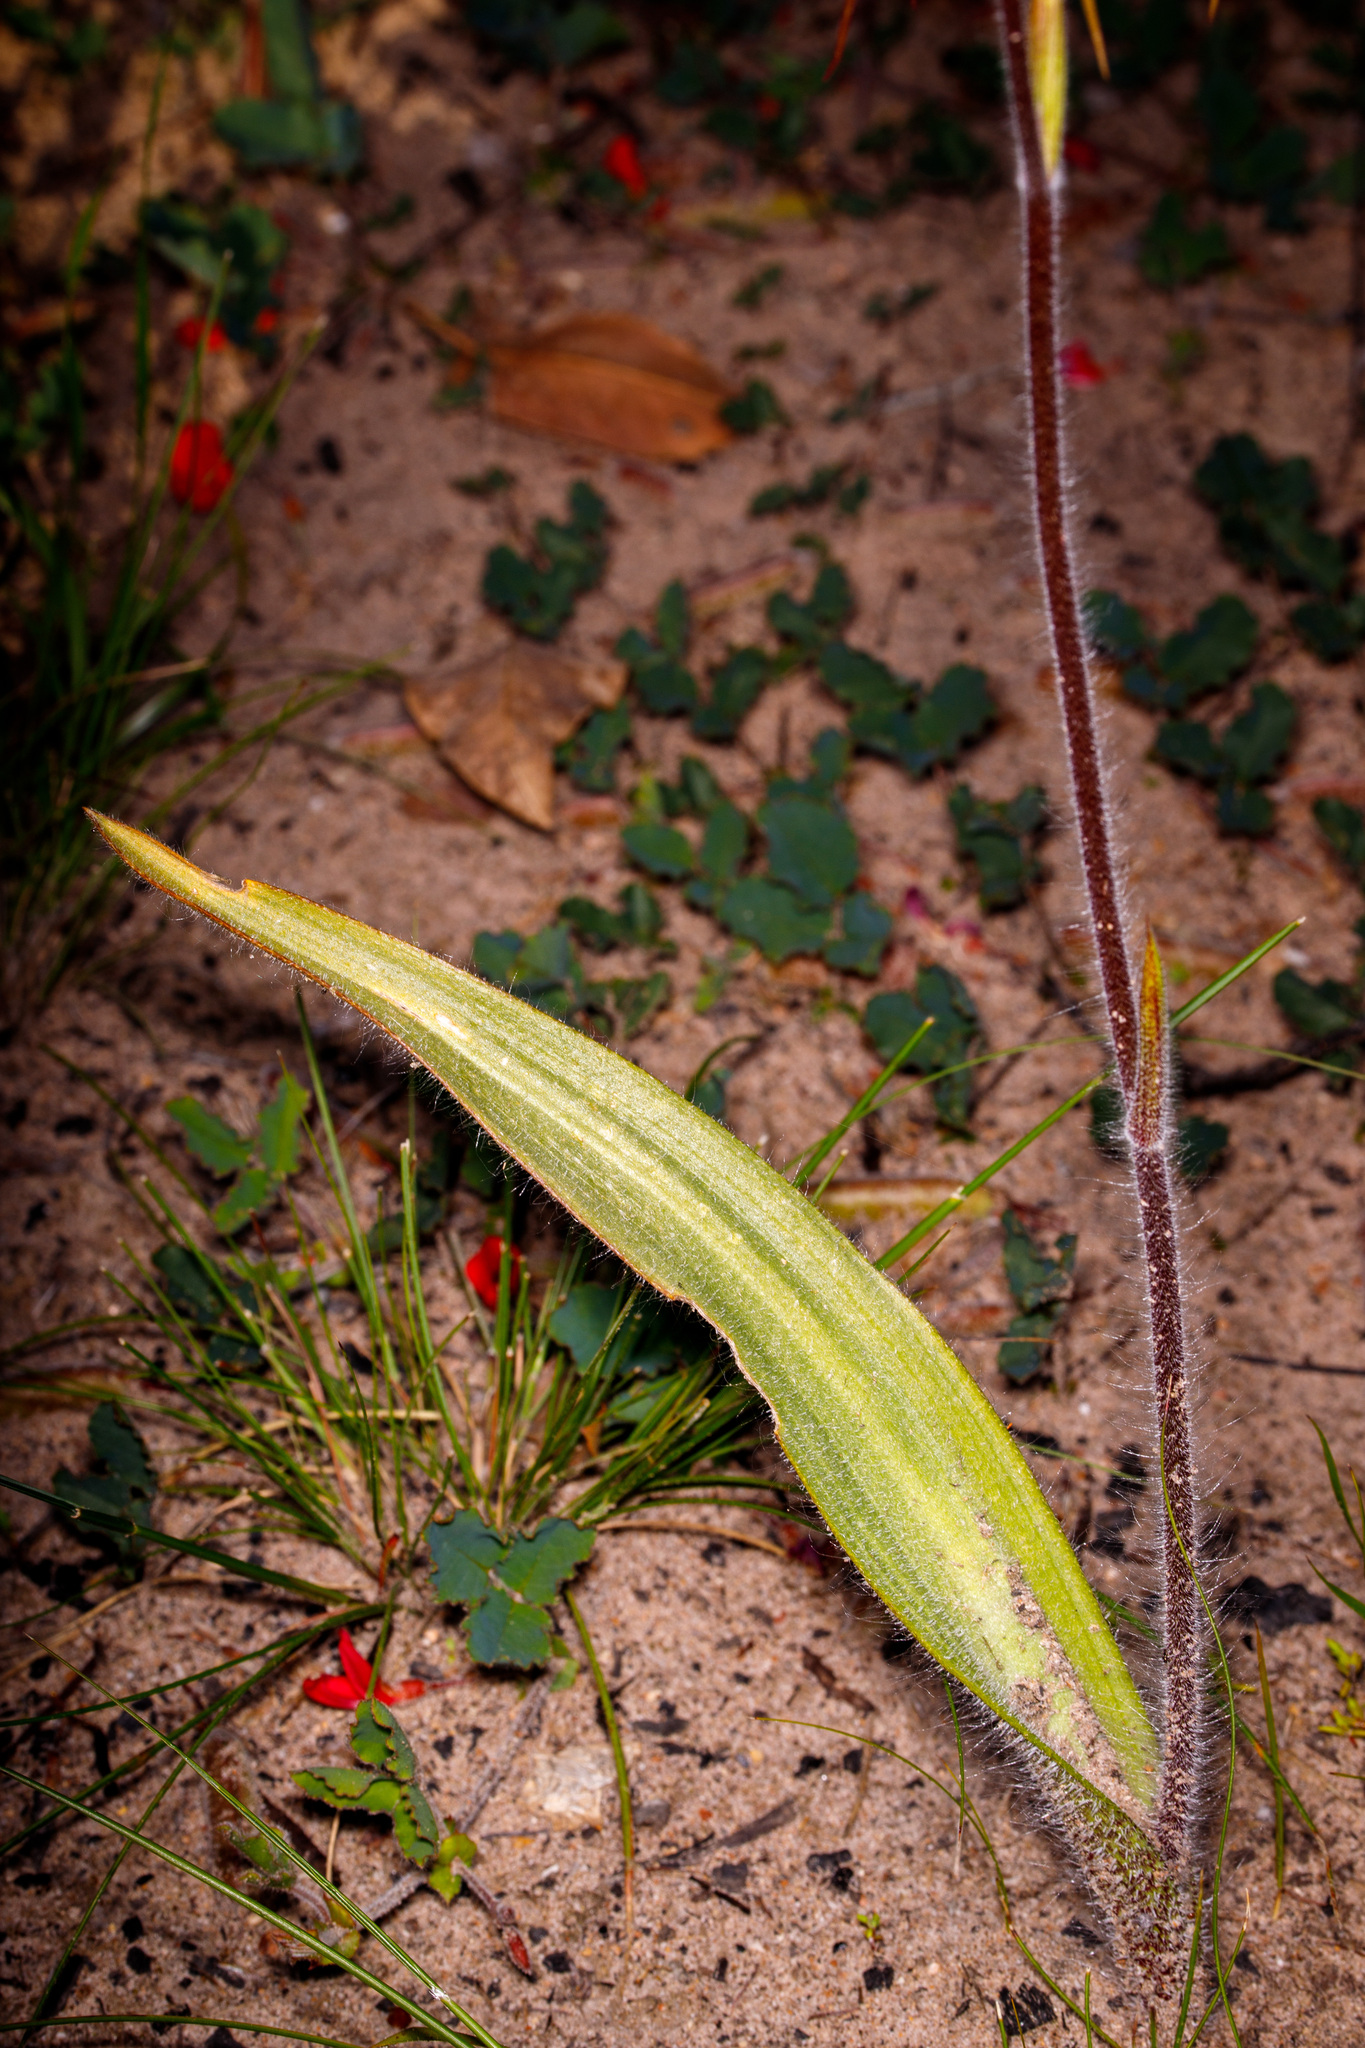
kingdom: Plantae
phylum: Tracheophyta
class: Liliopsida
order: Asparagales
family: Orchidaceae
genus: Caladenia
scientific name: Caladenia heberleana
